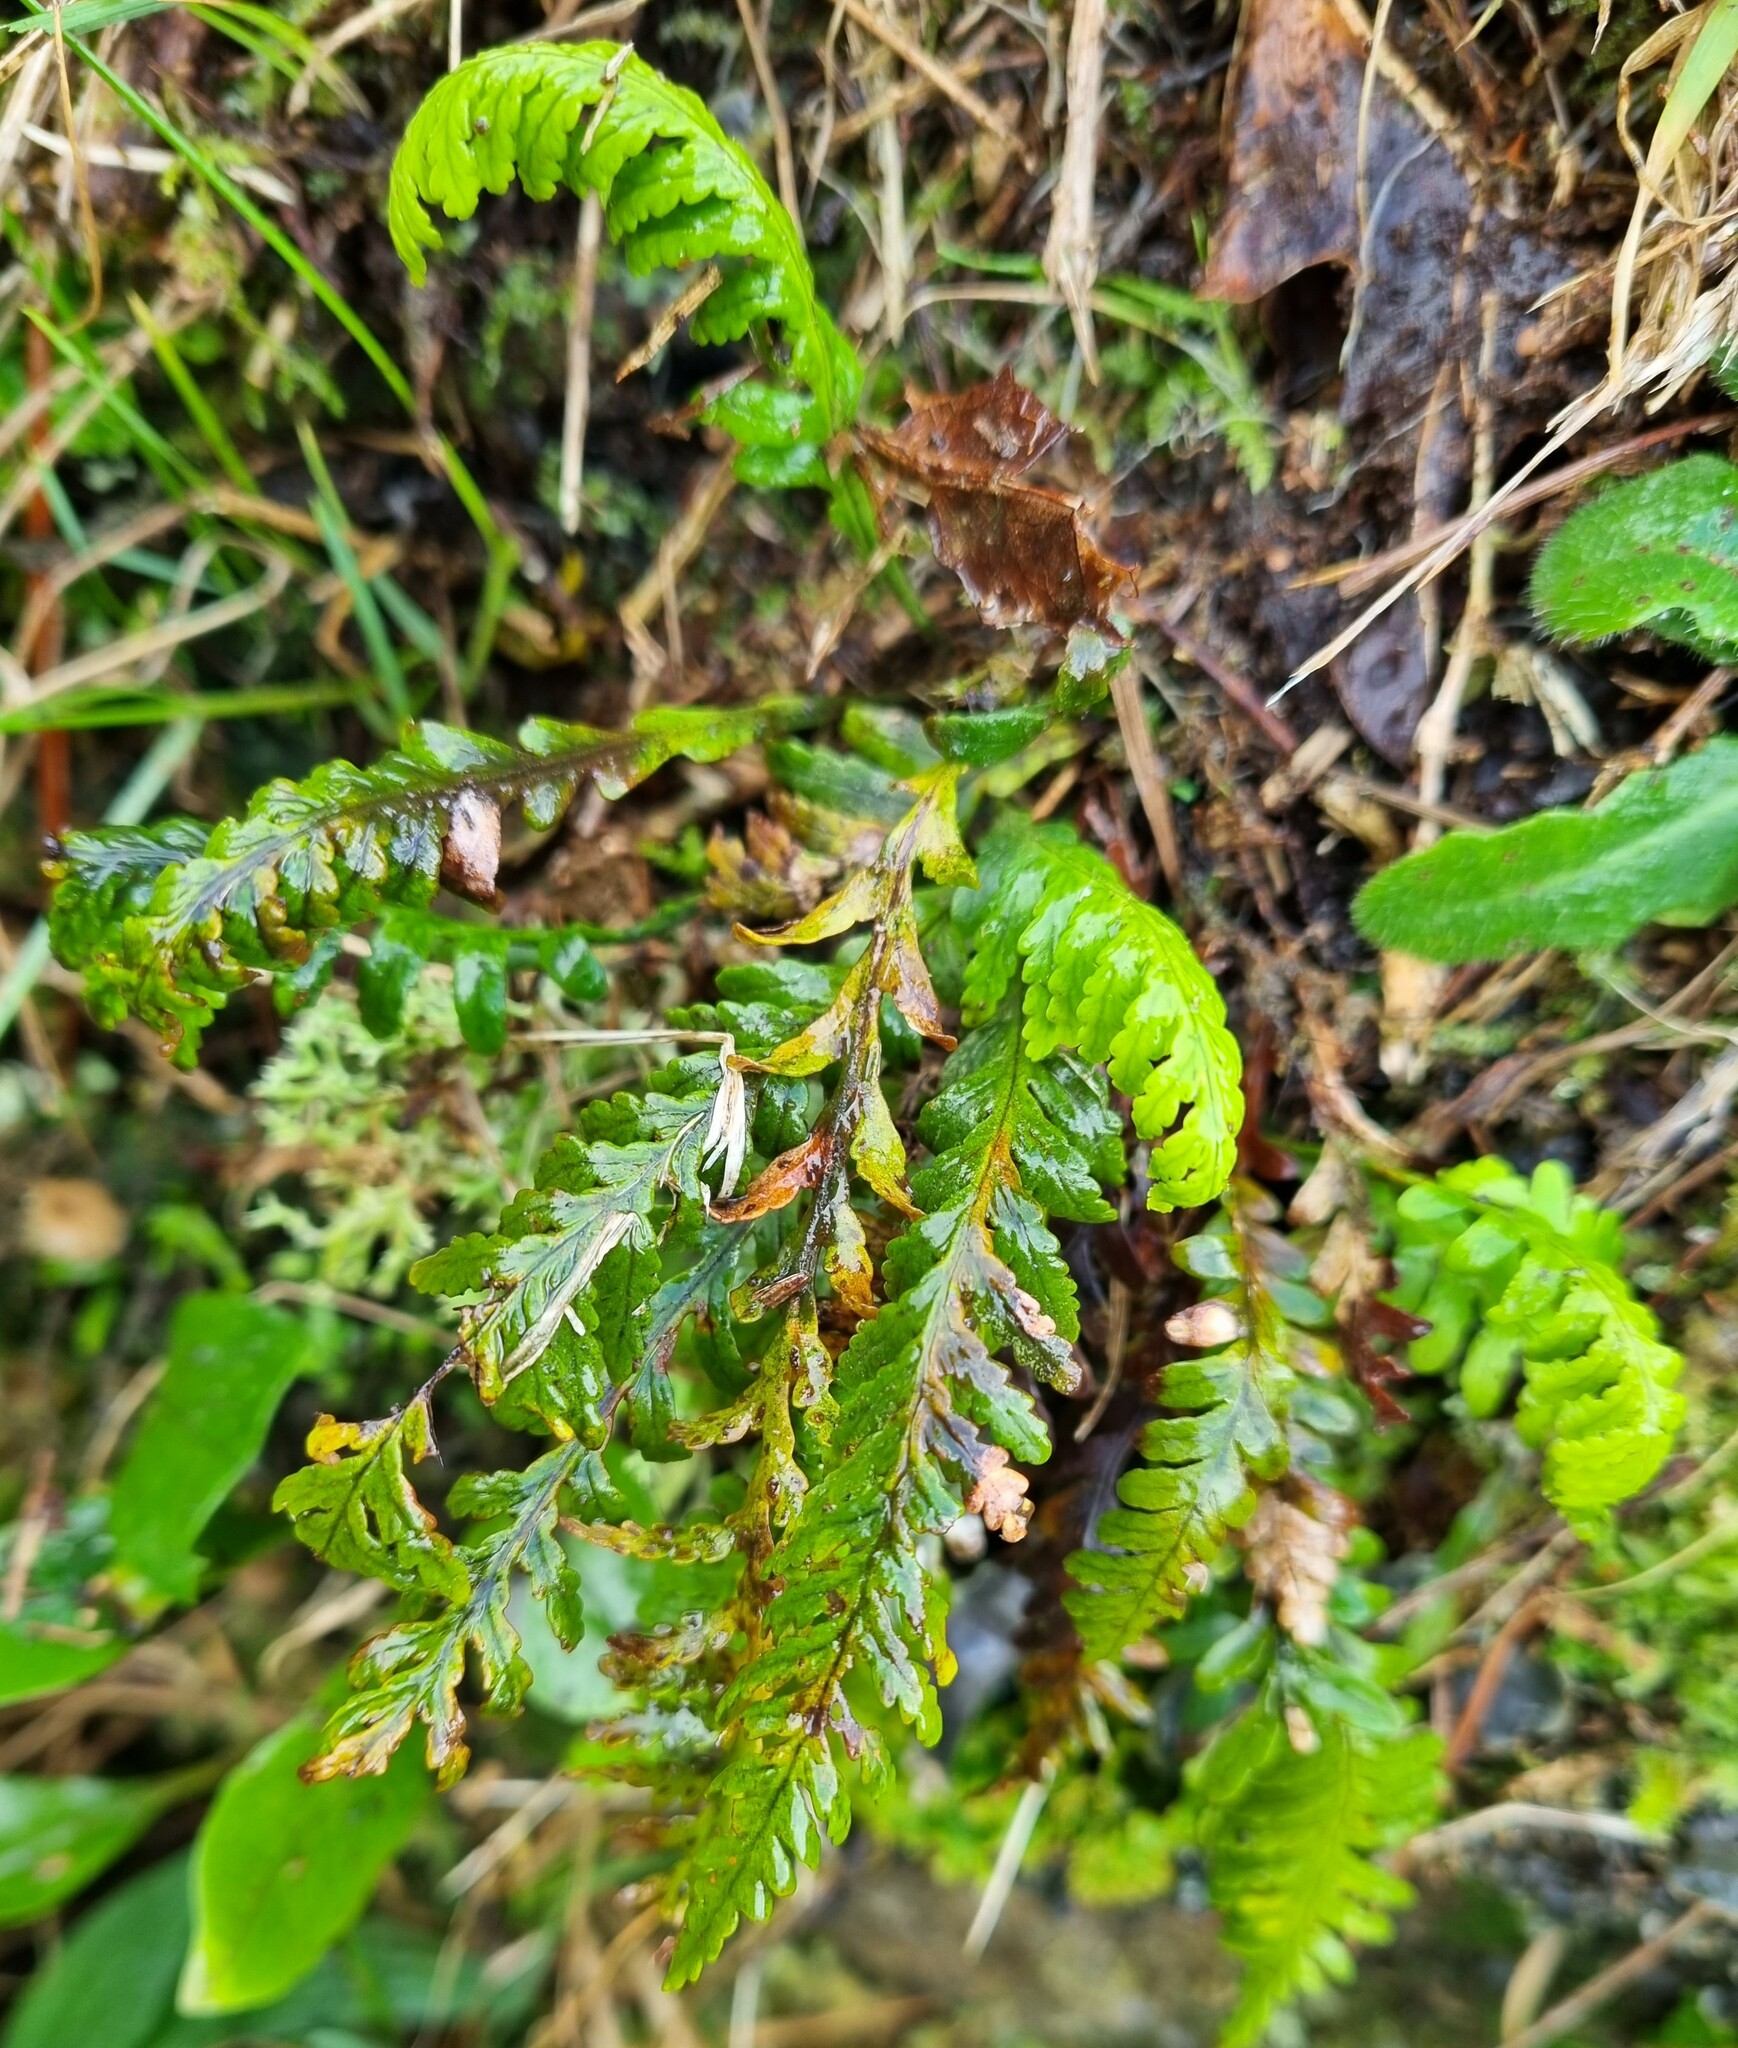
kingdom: Plantae
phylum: Tracheophyta
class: Polypodiopsida
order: Polypodiales
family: Polypodiaceae
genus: Notogrammitis
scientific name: Notogrammitis heterophylla
